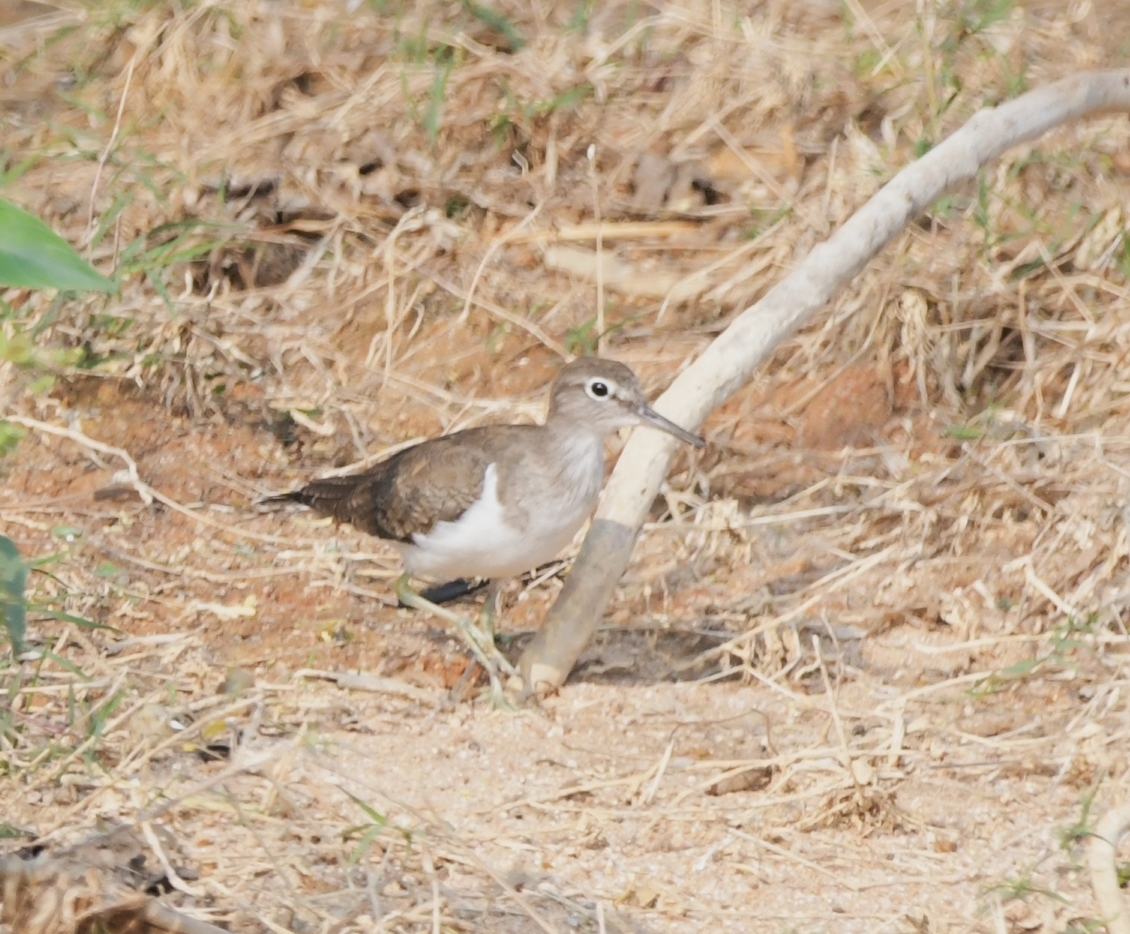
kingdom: Animalia
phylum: Chordata
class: Aves
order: Charadriiformes
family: Scolopacidae
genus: Actitis
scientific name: Actitis hypoleucos
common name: Common sandpiper
